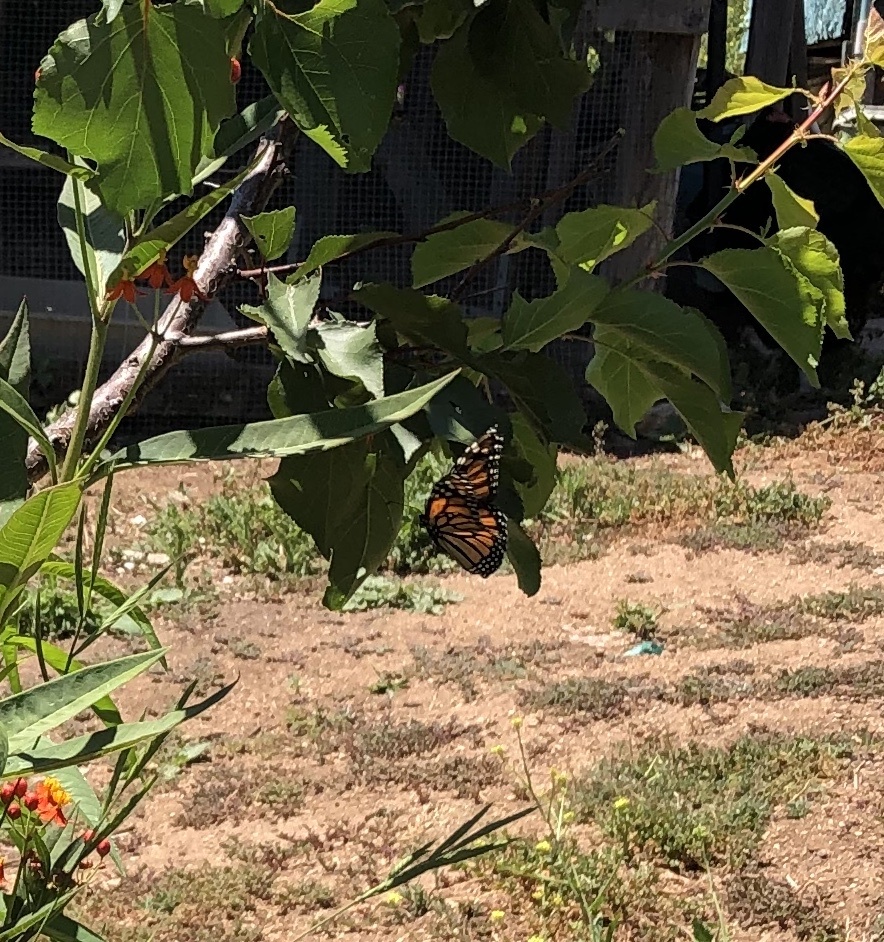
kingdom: Animalia
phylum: Arthropoda
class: Insecta
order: Lepidoptera
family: Nymphalidae
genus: Danaus
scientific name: Danaus plexippus
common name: Monarch
